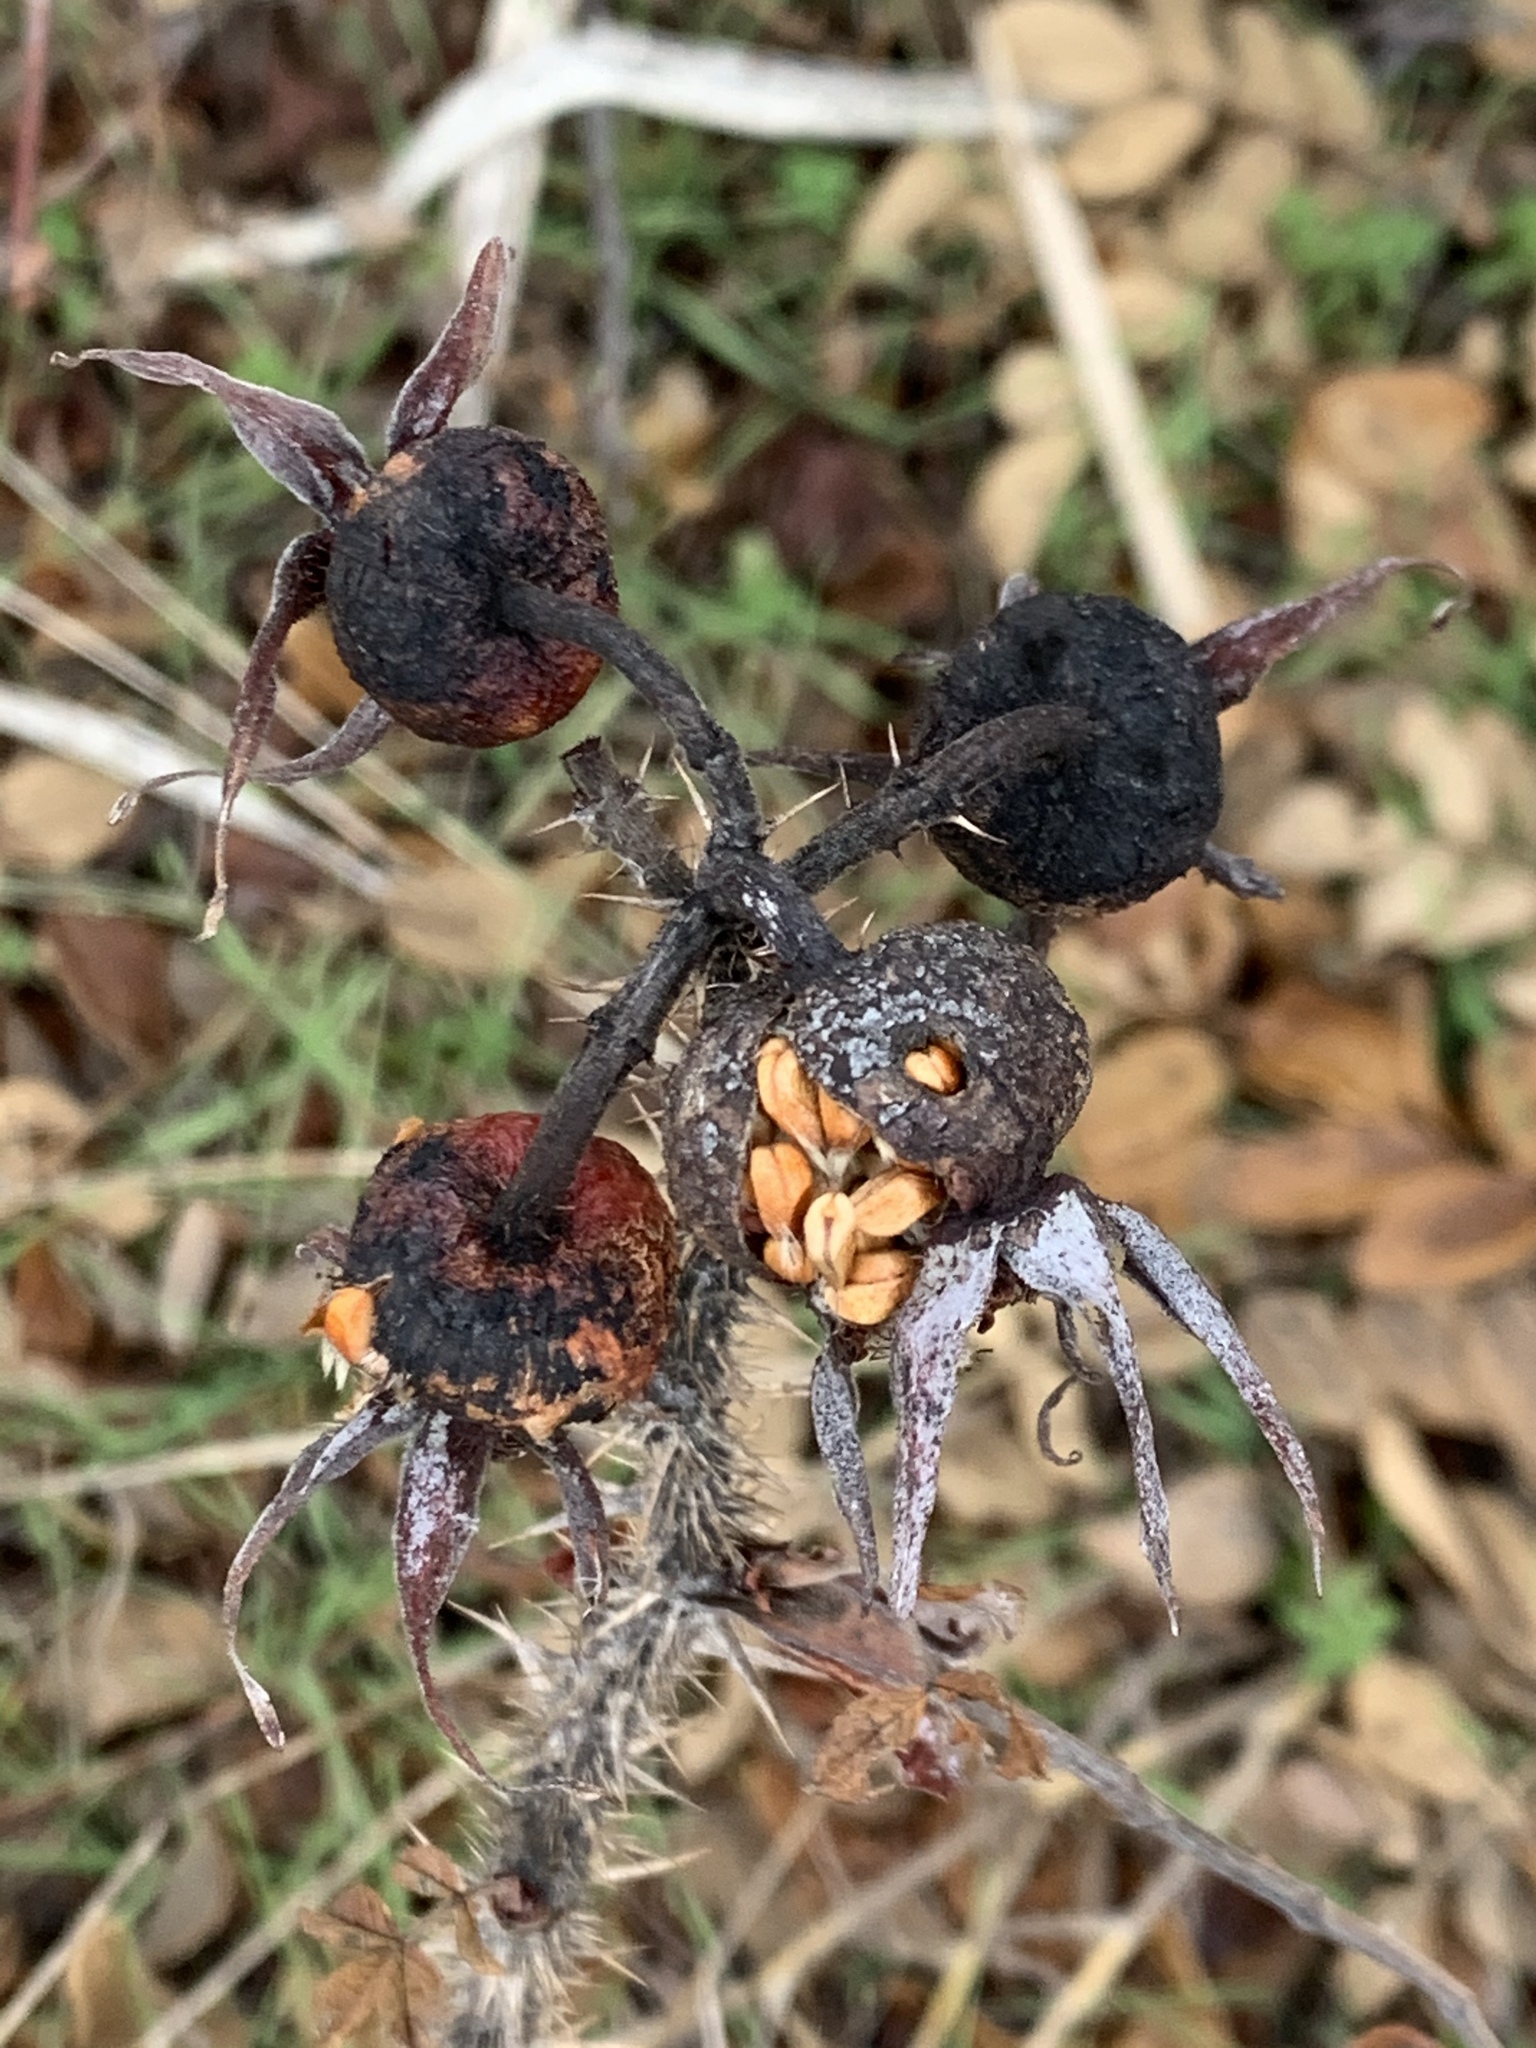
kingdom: Plantae
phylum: Tracheophyta
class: Magnoliopsida
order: Rosales
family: Rosaceae
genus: Rosa
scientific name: Rosa rugosa
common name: Japanese rose
